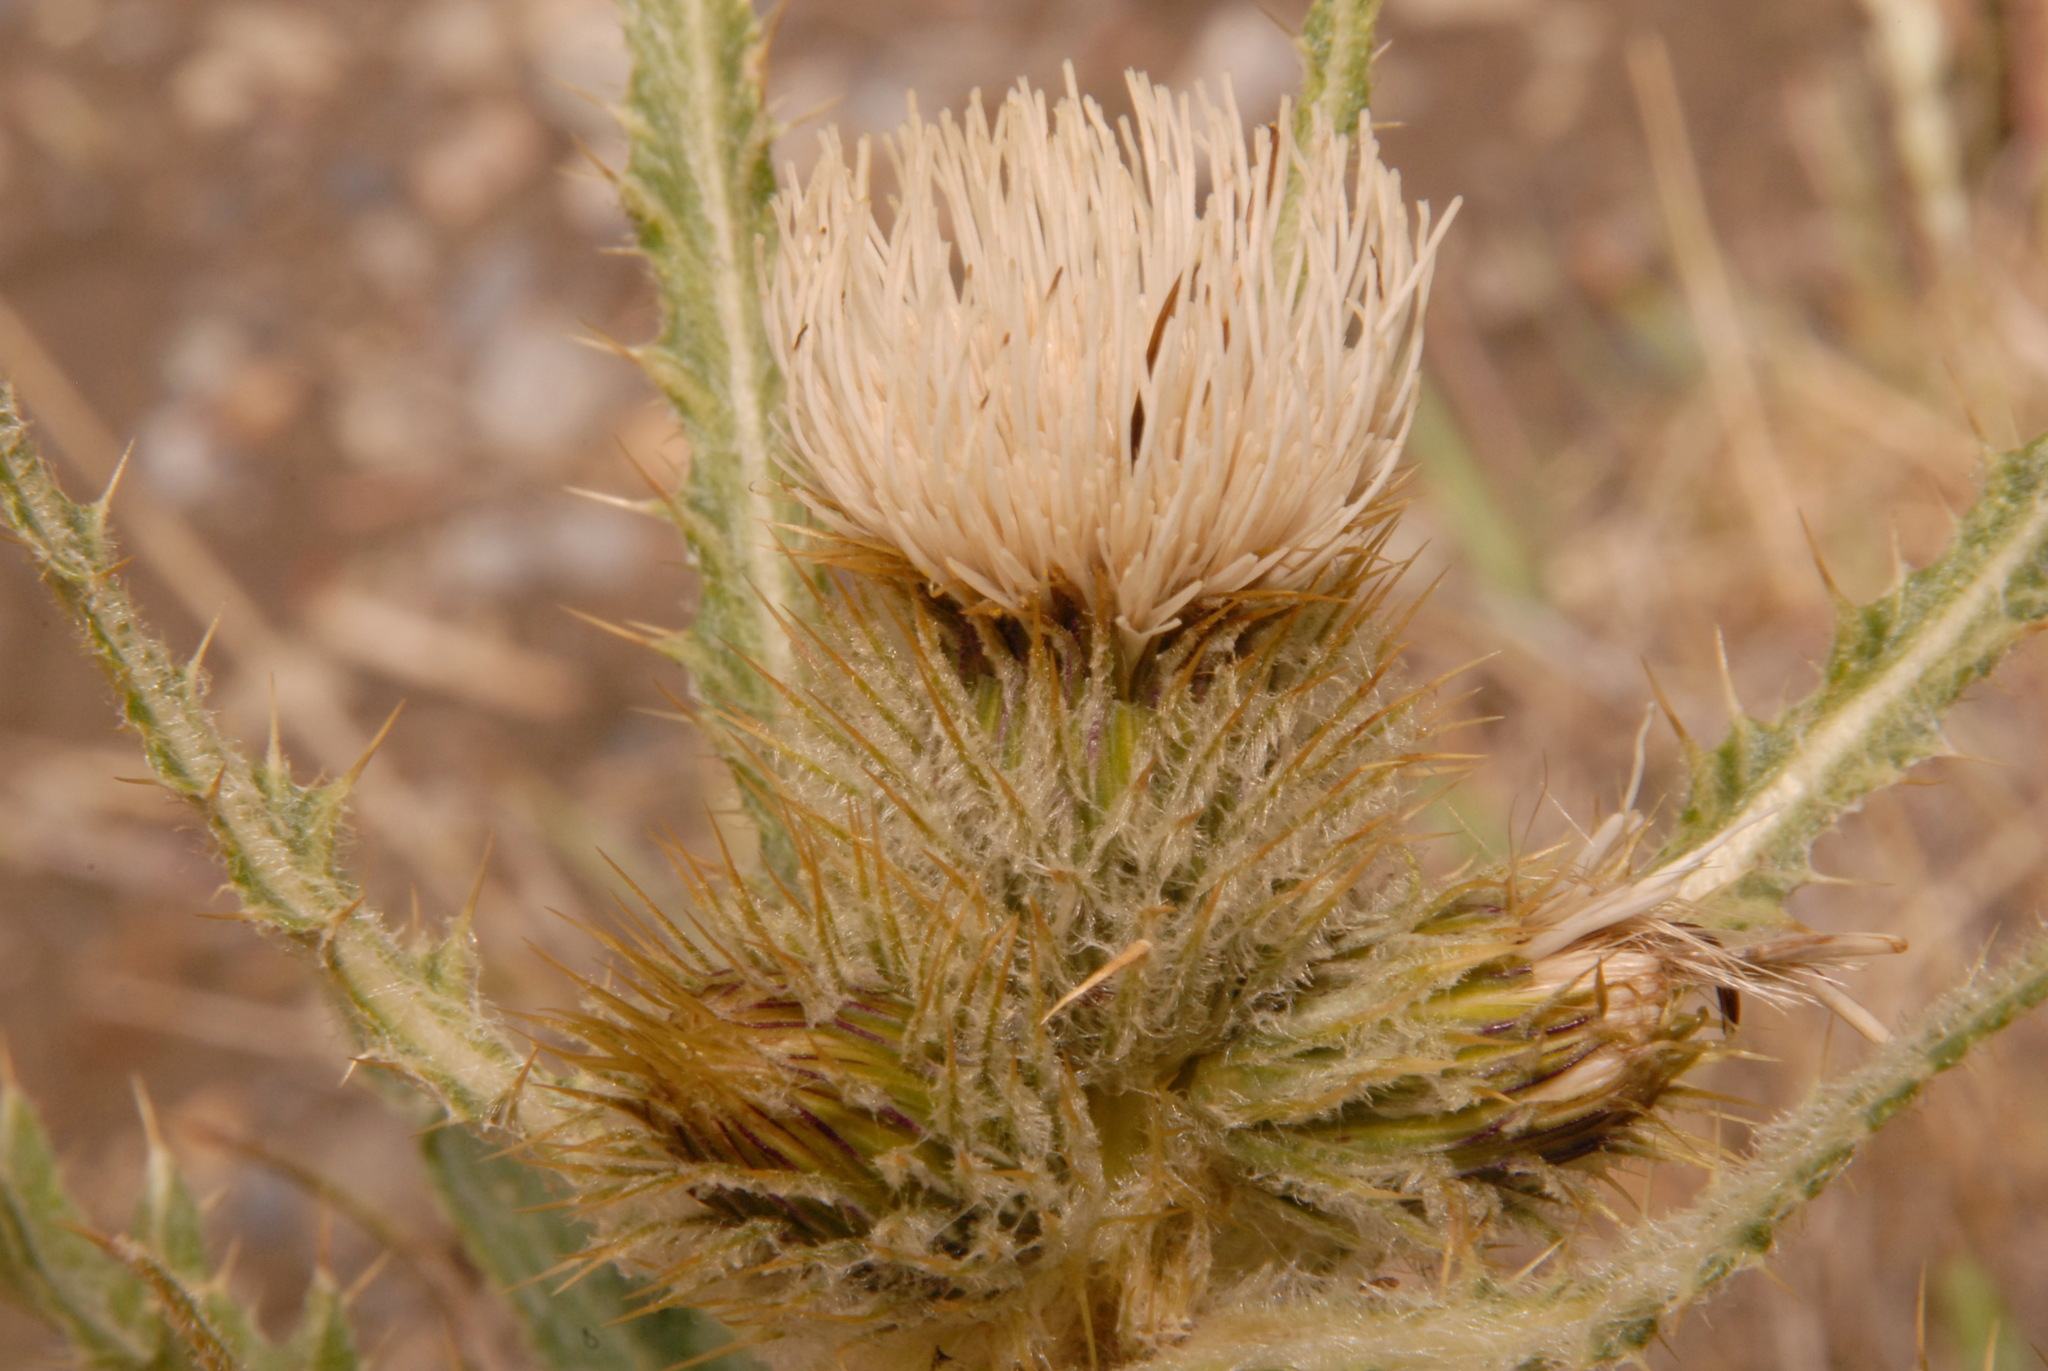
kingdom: Plantae
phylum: Tracheophyta
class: Magnoliopsida
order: Asterales
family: Asteraceae
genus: Cirsium
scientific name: Cirsium hookerianum
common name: Hooker's thistle
